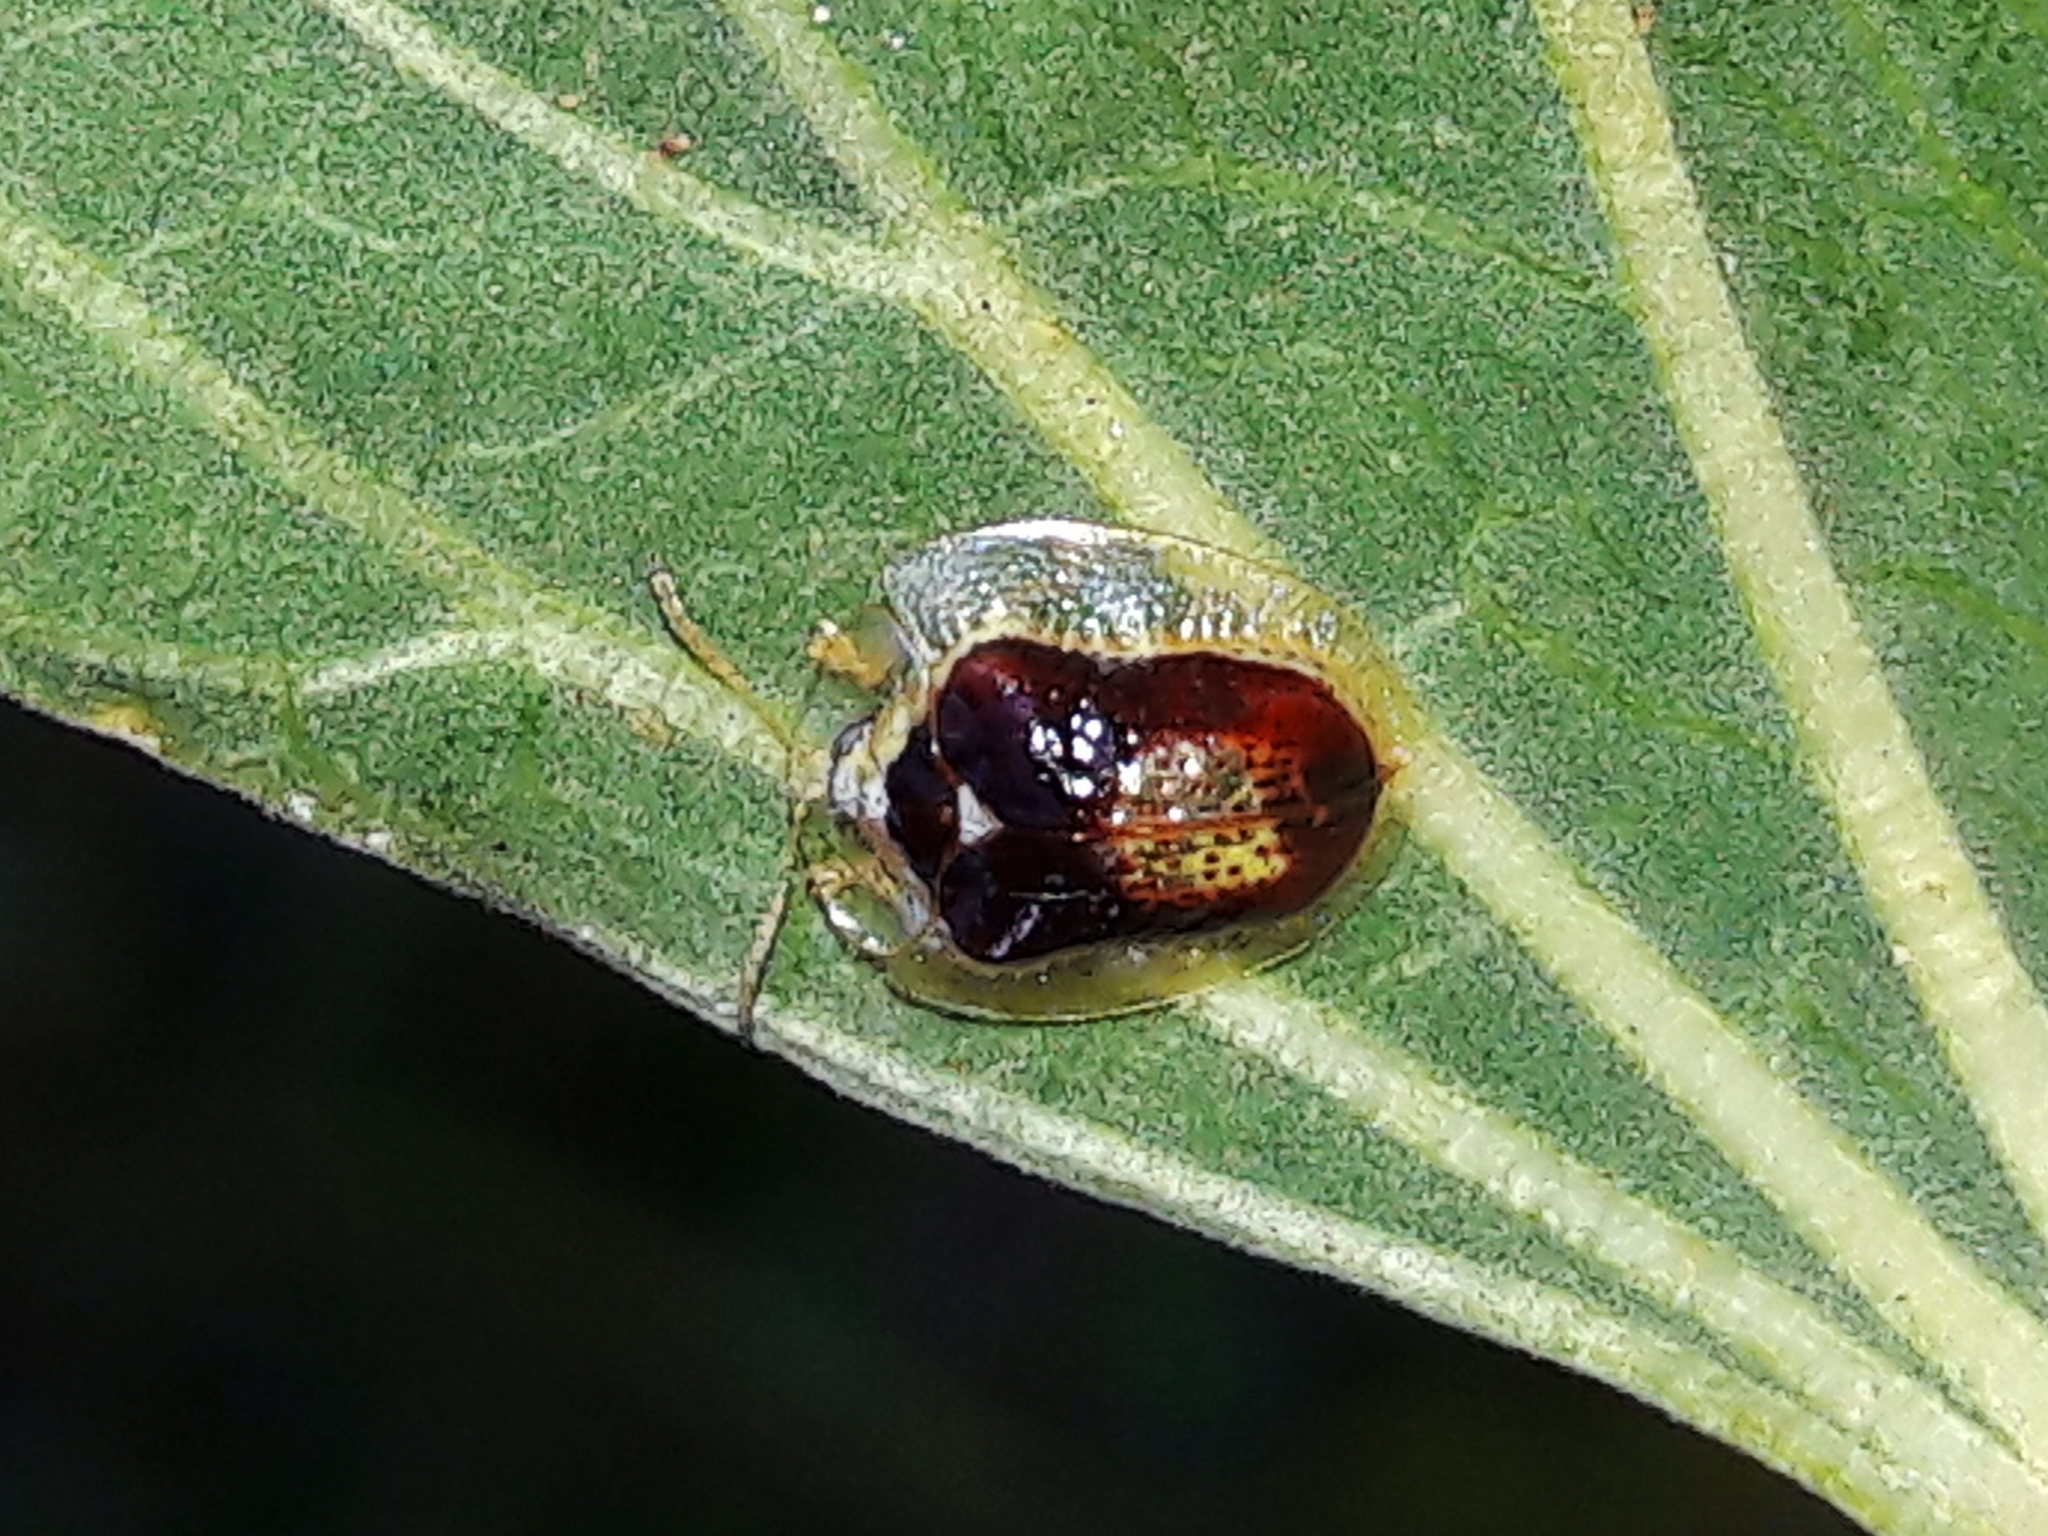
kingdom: Animalia
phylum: Arthropoda
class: Insecta
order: Coleoptera
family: Chrysomelidae
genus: Microctenochira
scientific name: Microctenochira trepida
